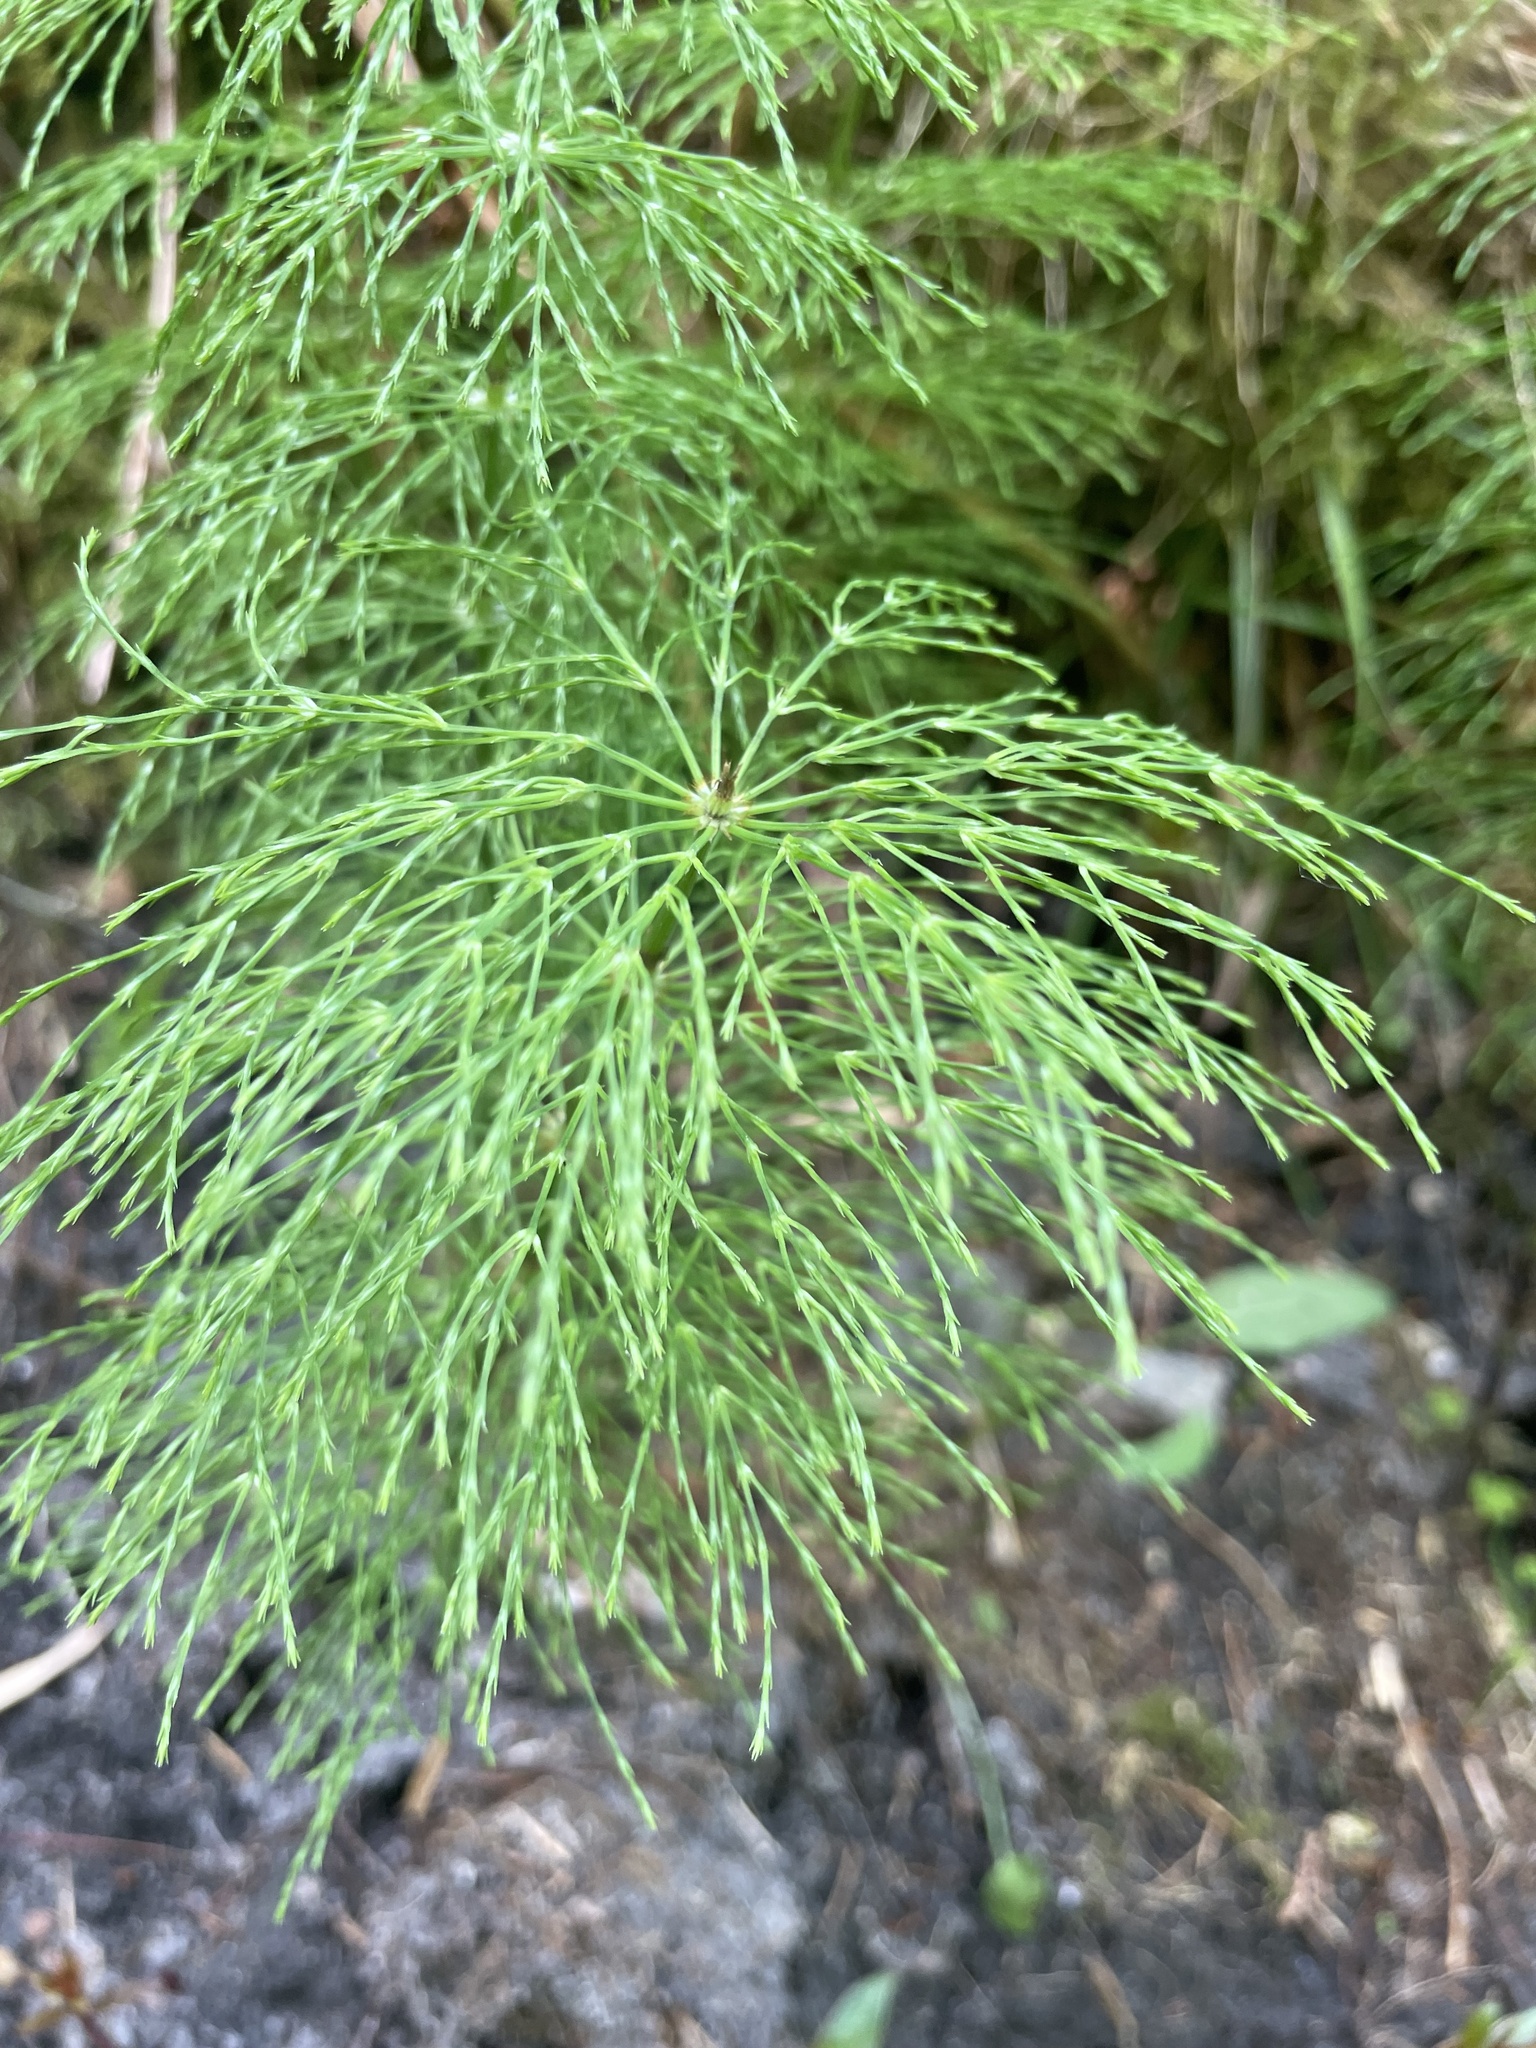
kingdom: Plantae
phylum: Tracheophyta
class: Polypodiopsida
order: Equisetales
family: Equisetaceae
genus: Equisetum
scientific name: Equisetum sylvaticum
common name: Wood horsetail
